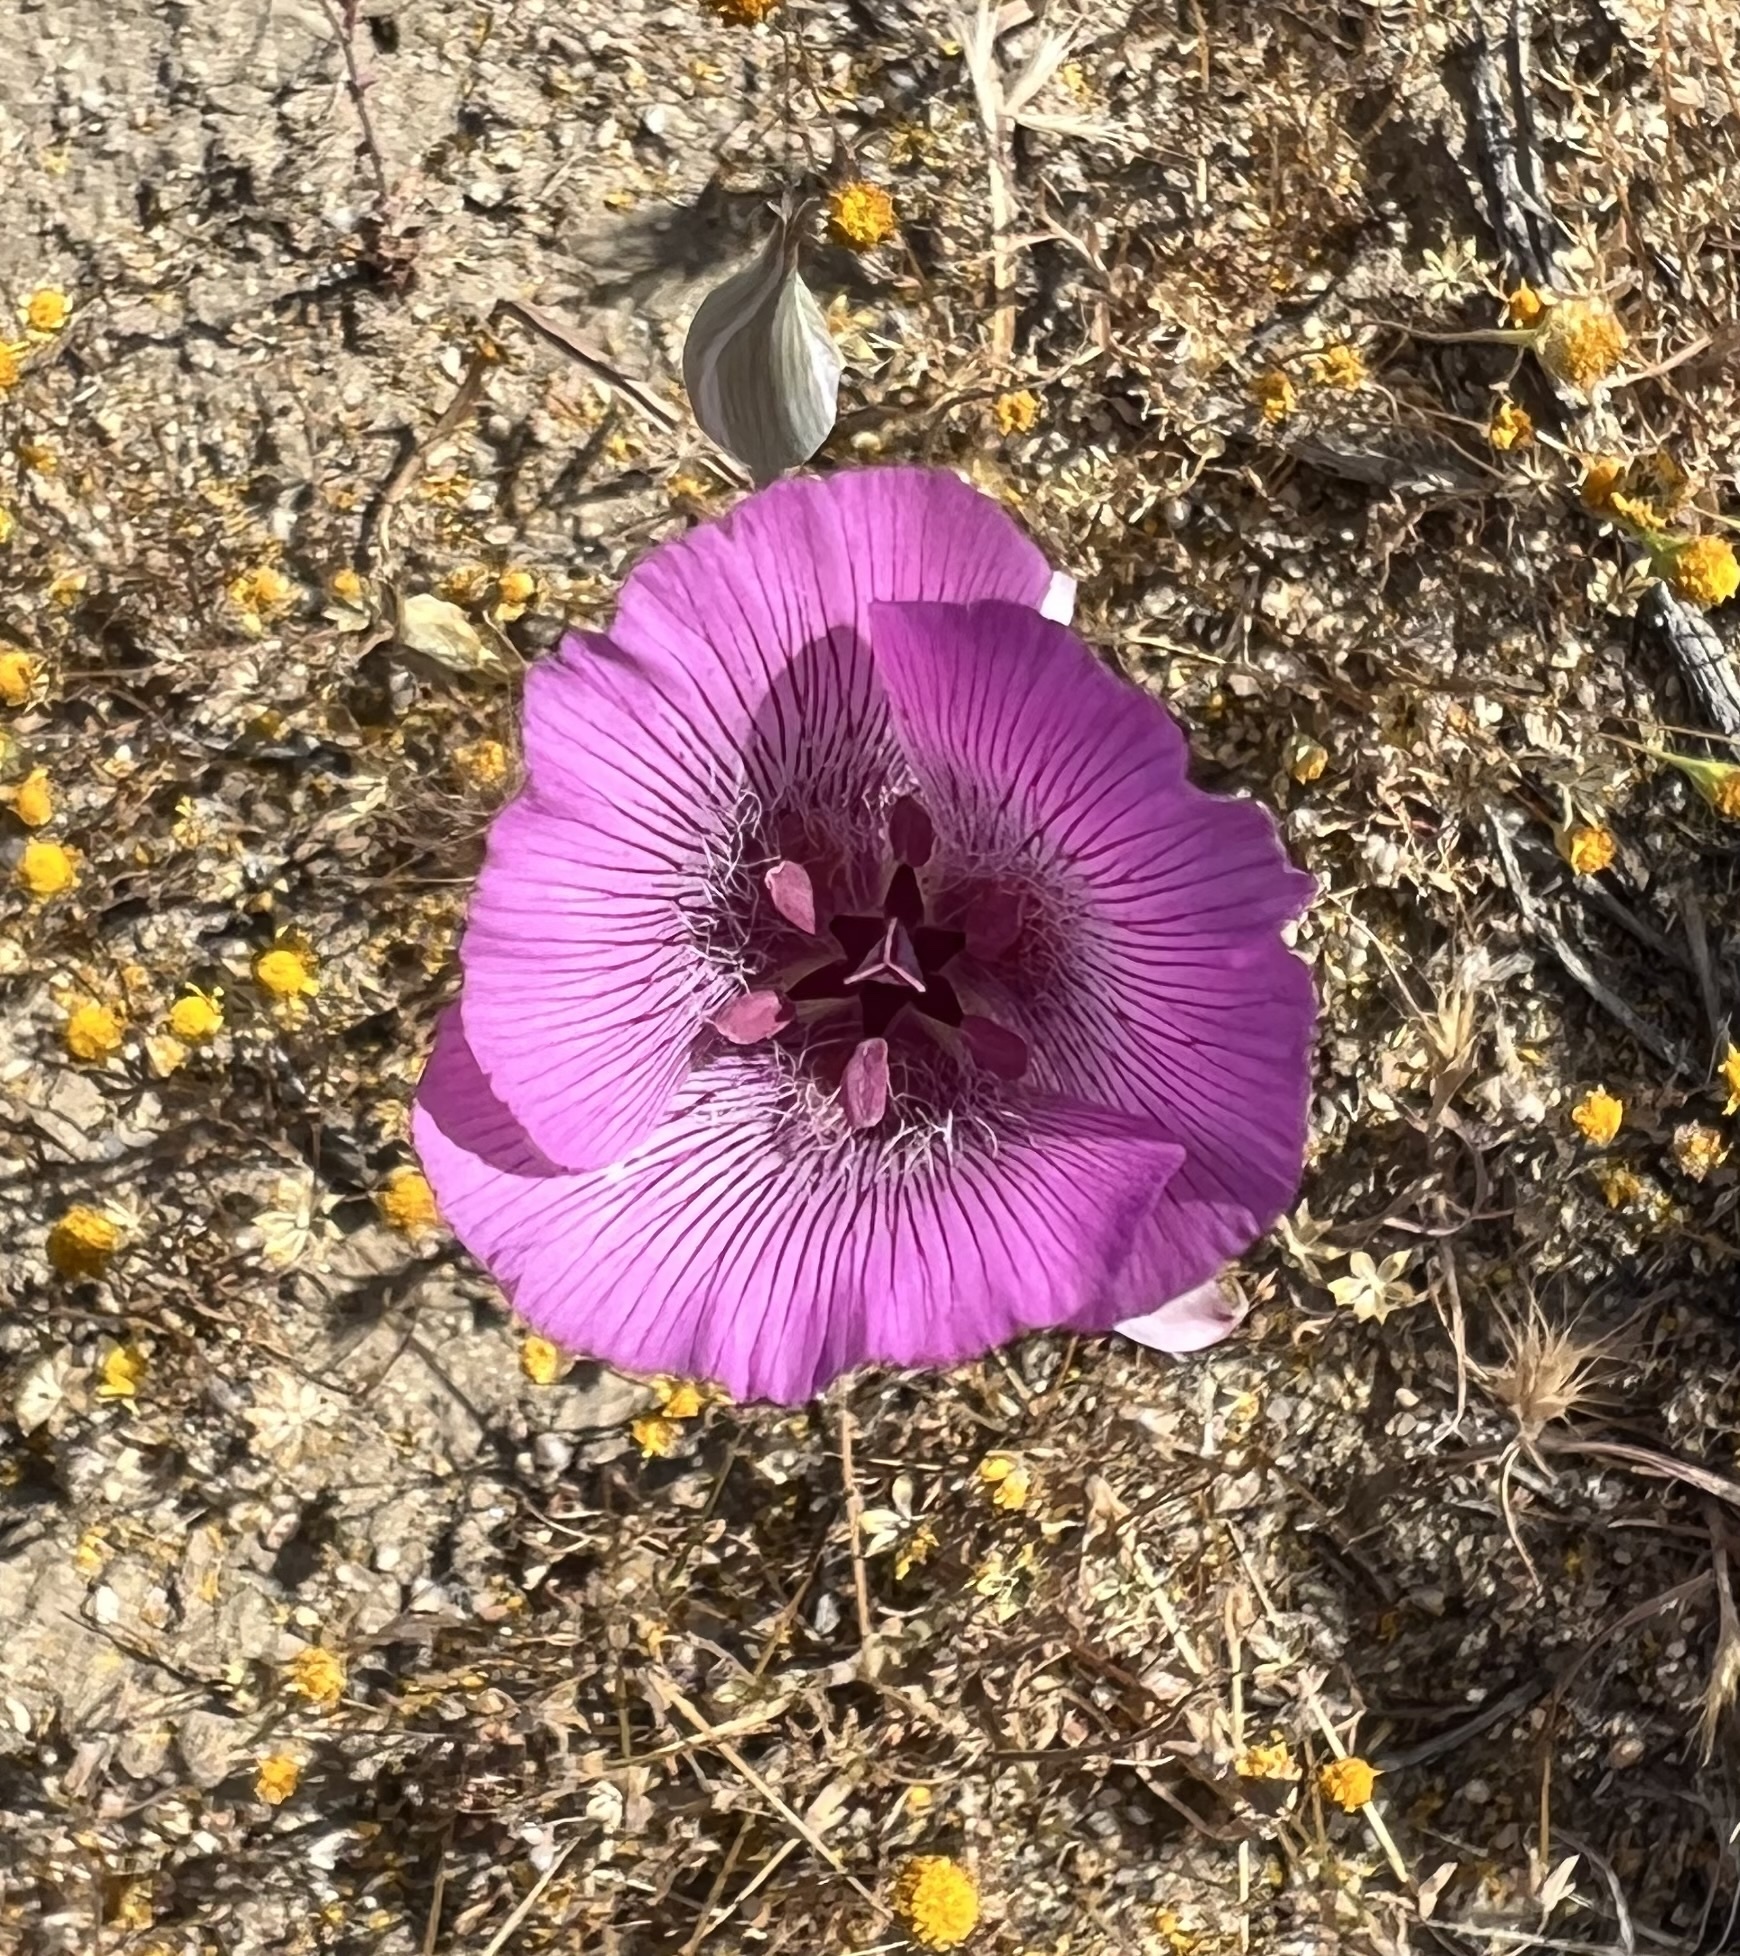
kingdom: Plantae
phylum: Tracheophyta
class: Liliopsida
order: Liliales
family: Liliaceae
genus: Calochortus
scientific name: Calochortus striatus
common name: Alkali mariposa-lily
